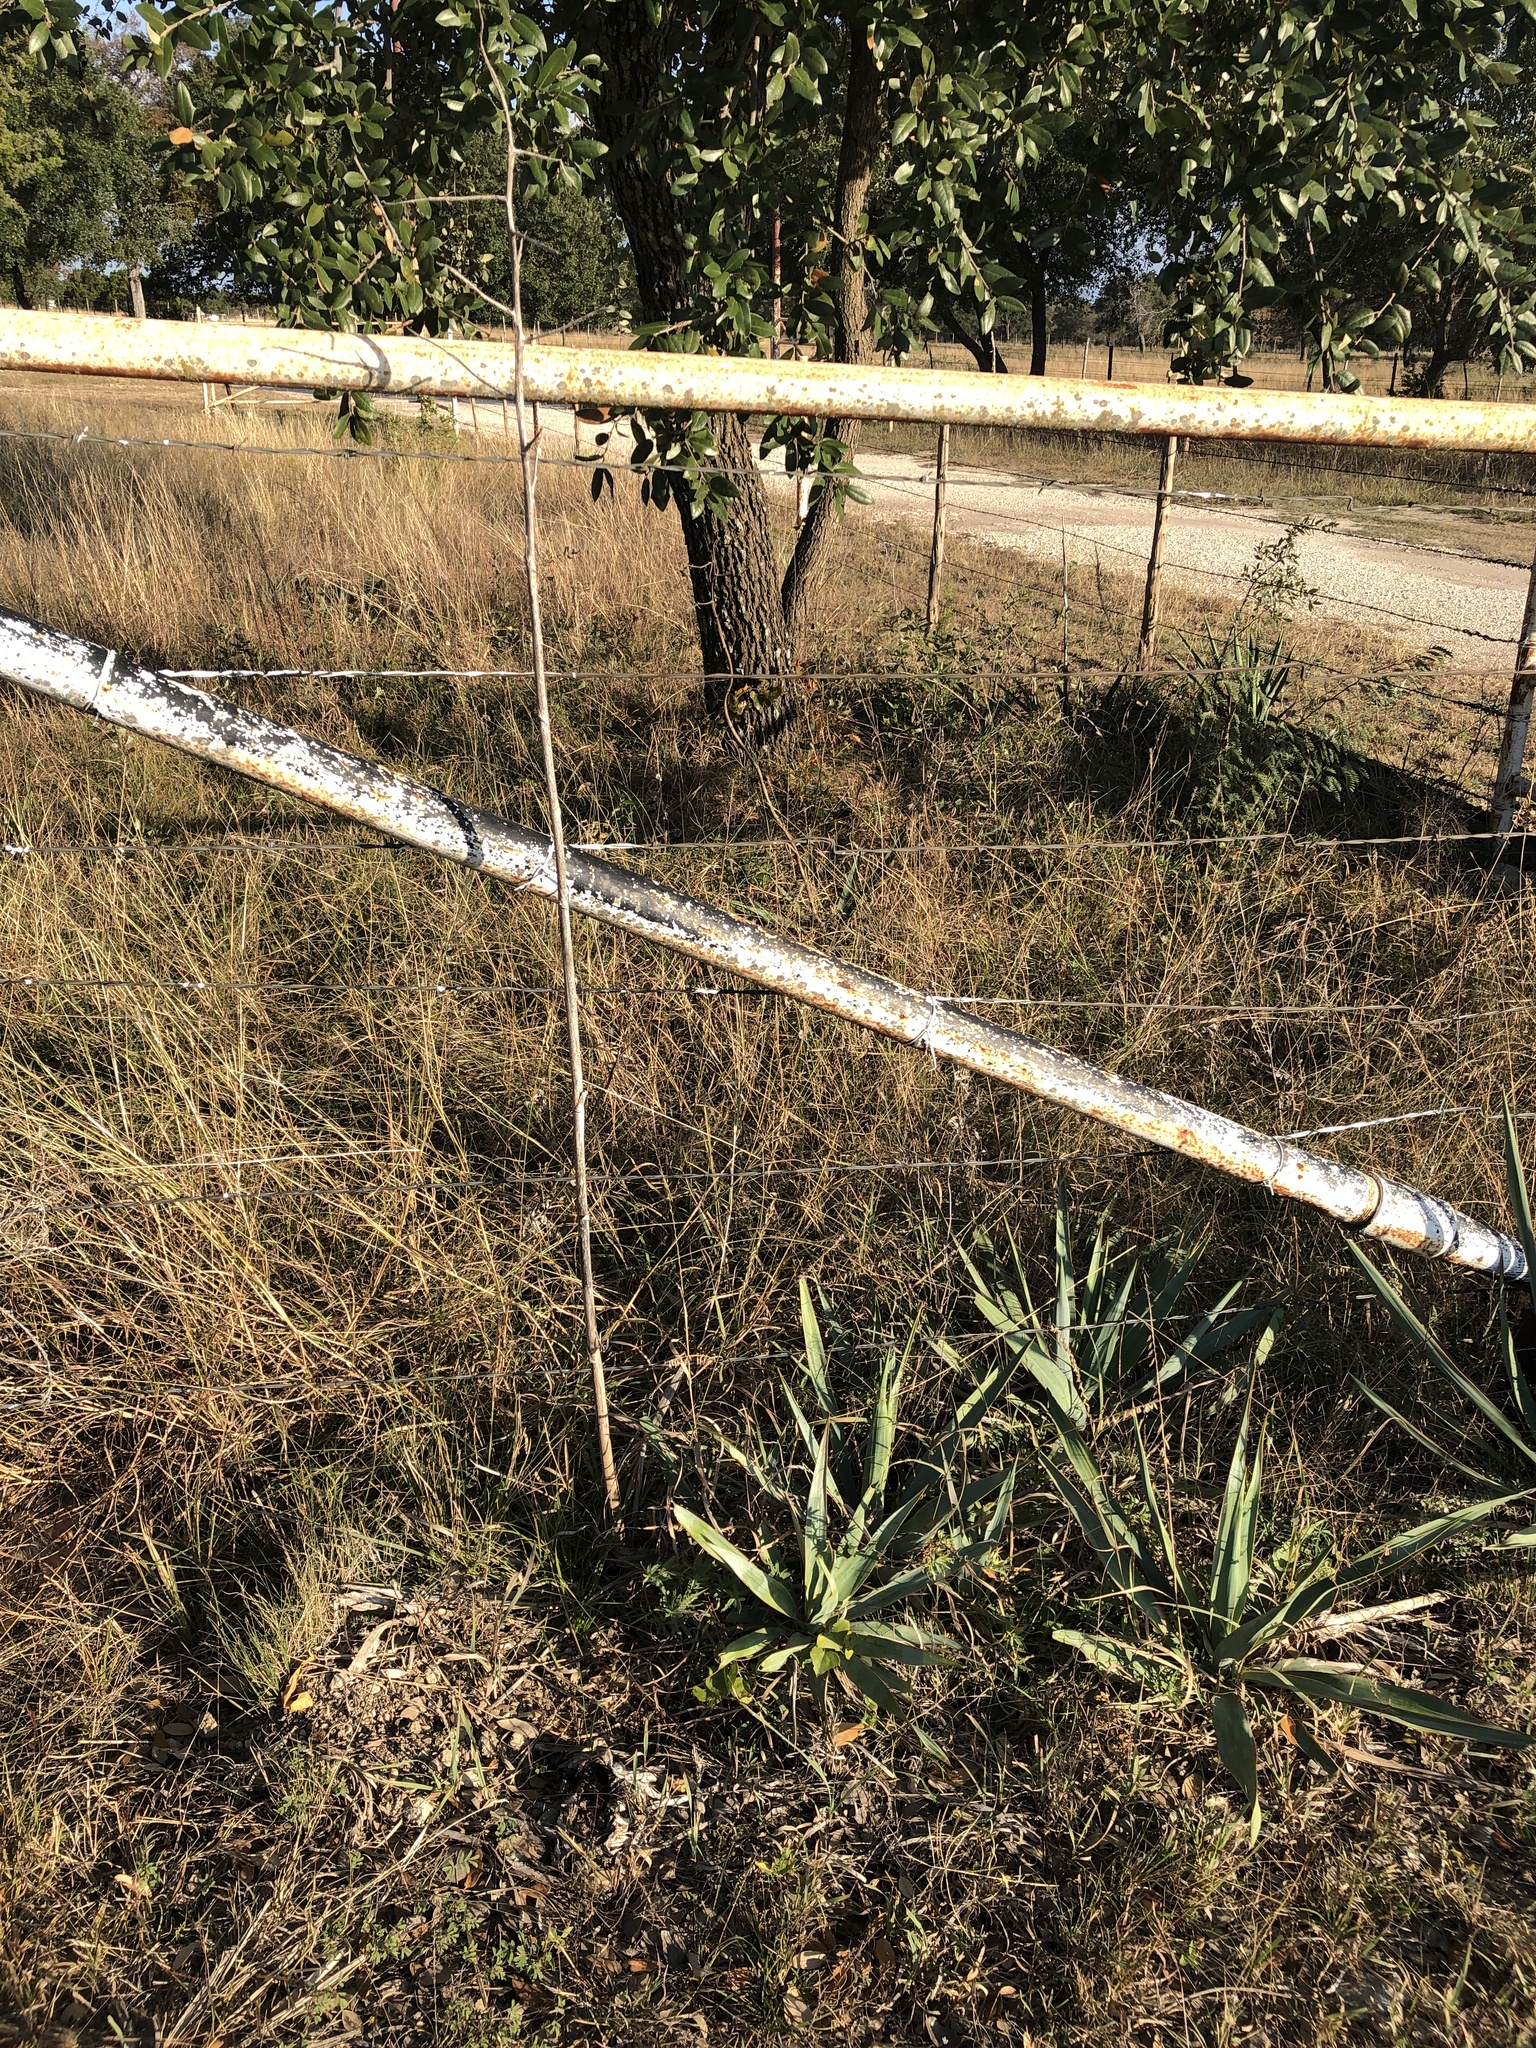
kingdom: Plantae
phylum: Tracheophyta
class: Liliopsida
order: Asparagales
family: Asparagaceae
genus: Yucca
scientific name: Yucca pallida
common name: Pale leaf yucca
